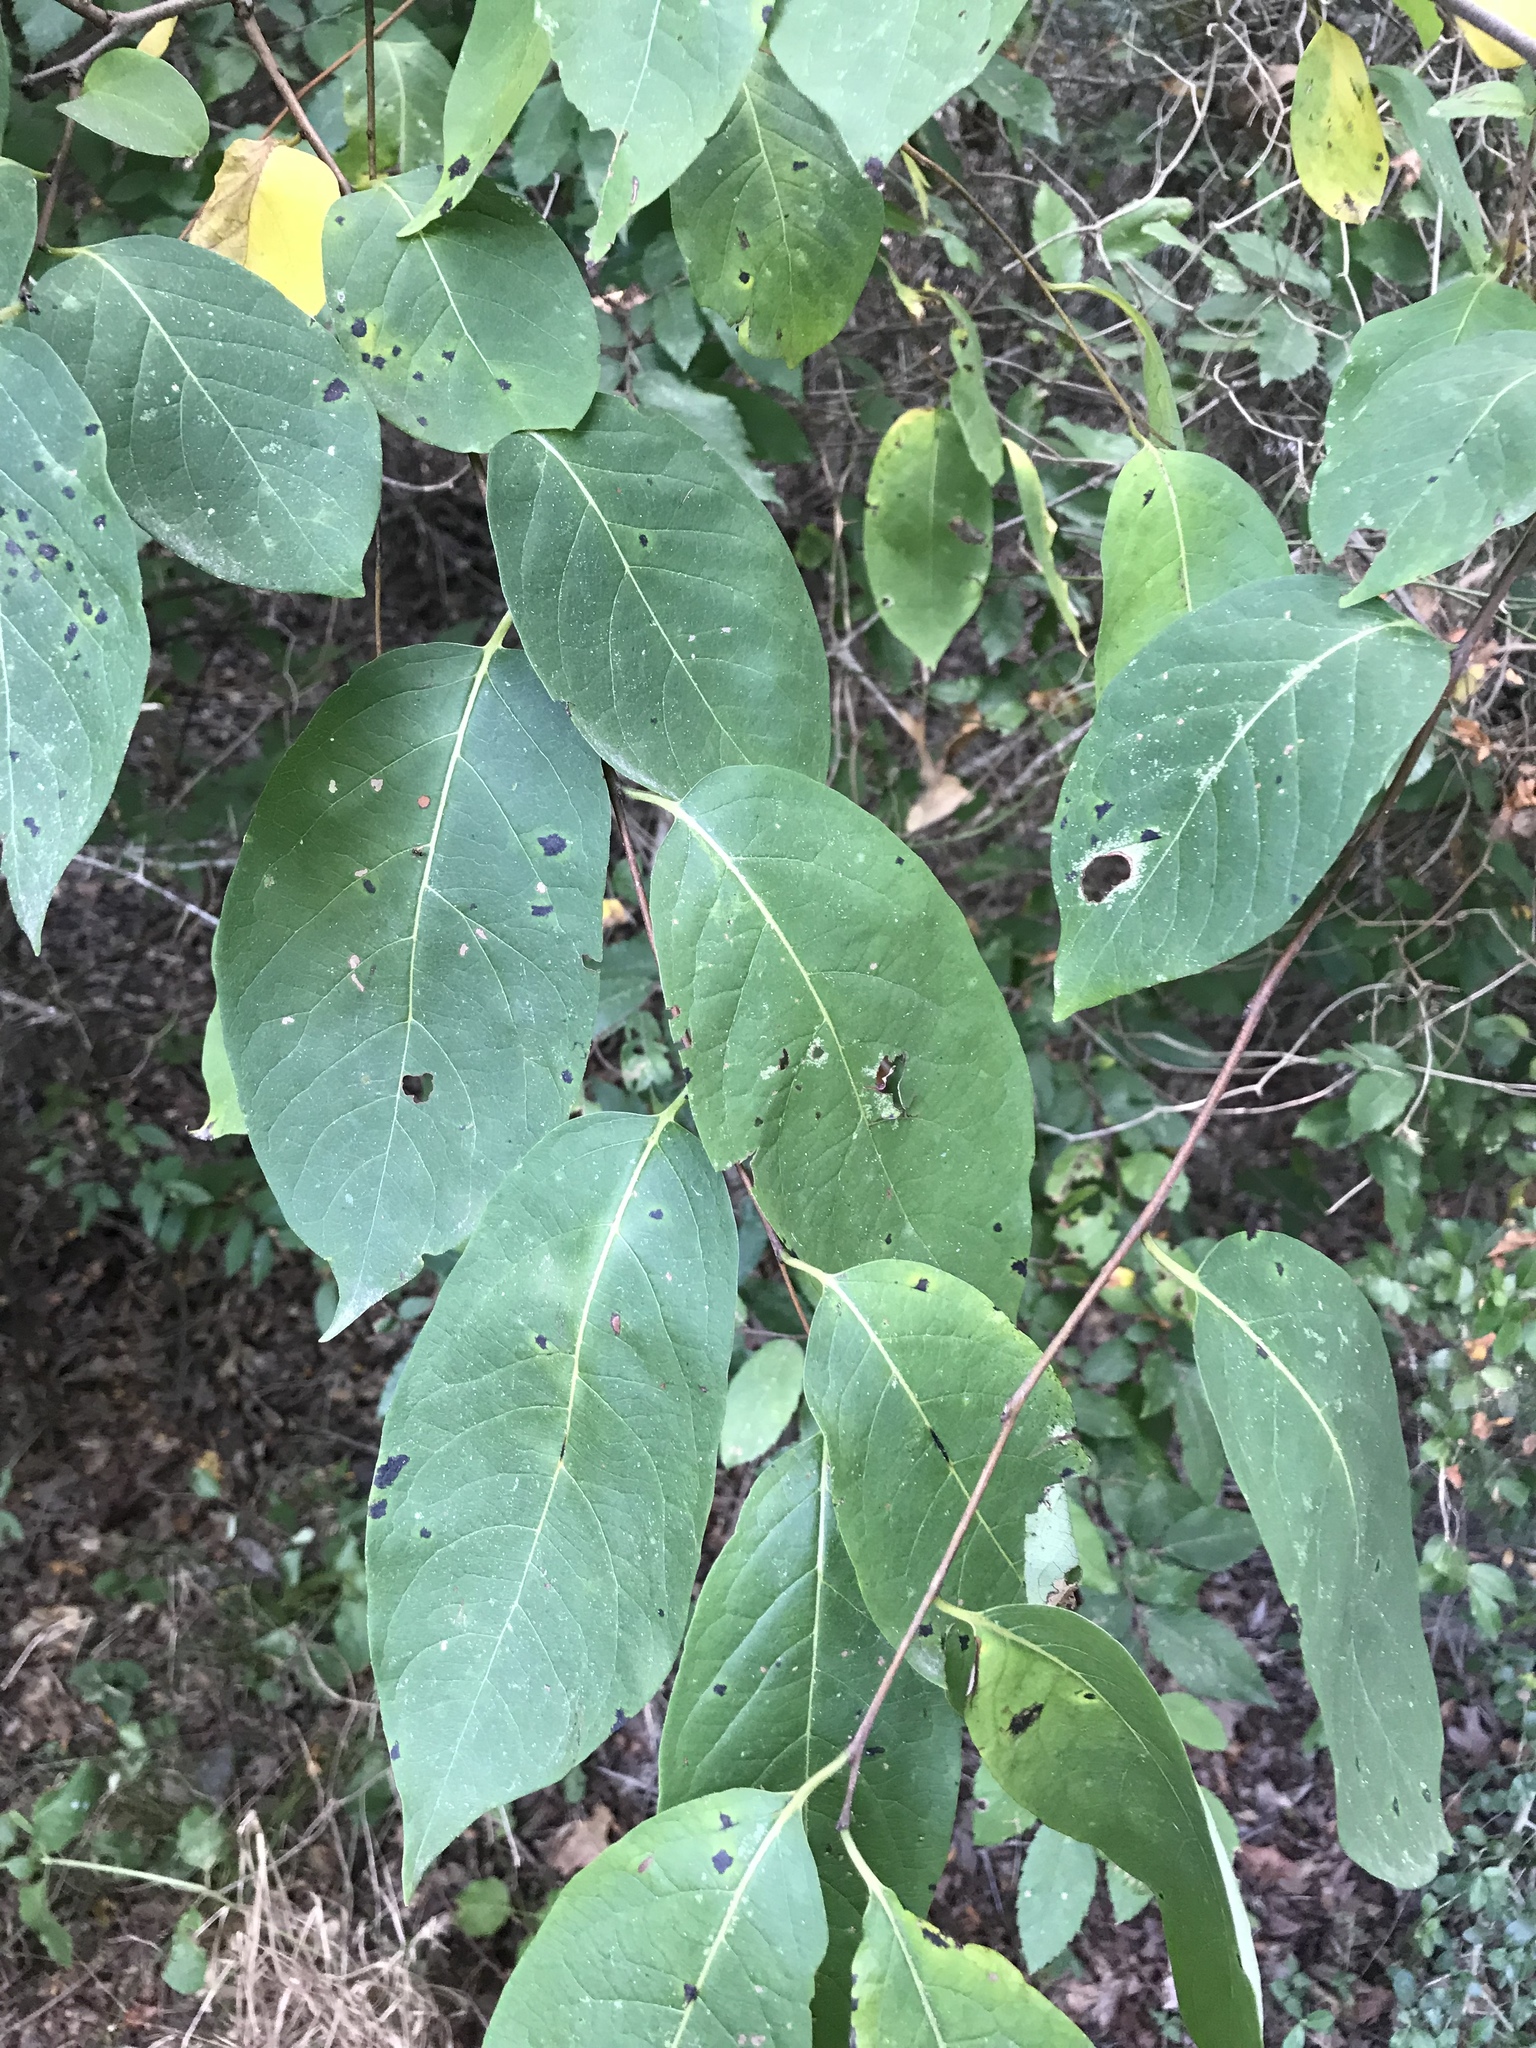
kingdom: Plantae
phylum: Tracheophyta
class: Magnoliopsida
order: Ericales
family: Ebenaceae
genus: Diospyros
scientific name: Diospyros virginiana
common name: Persimmon
